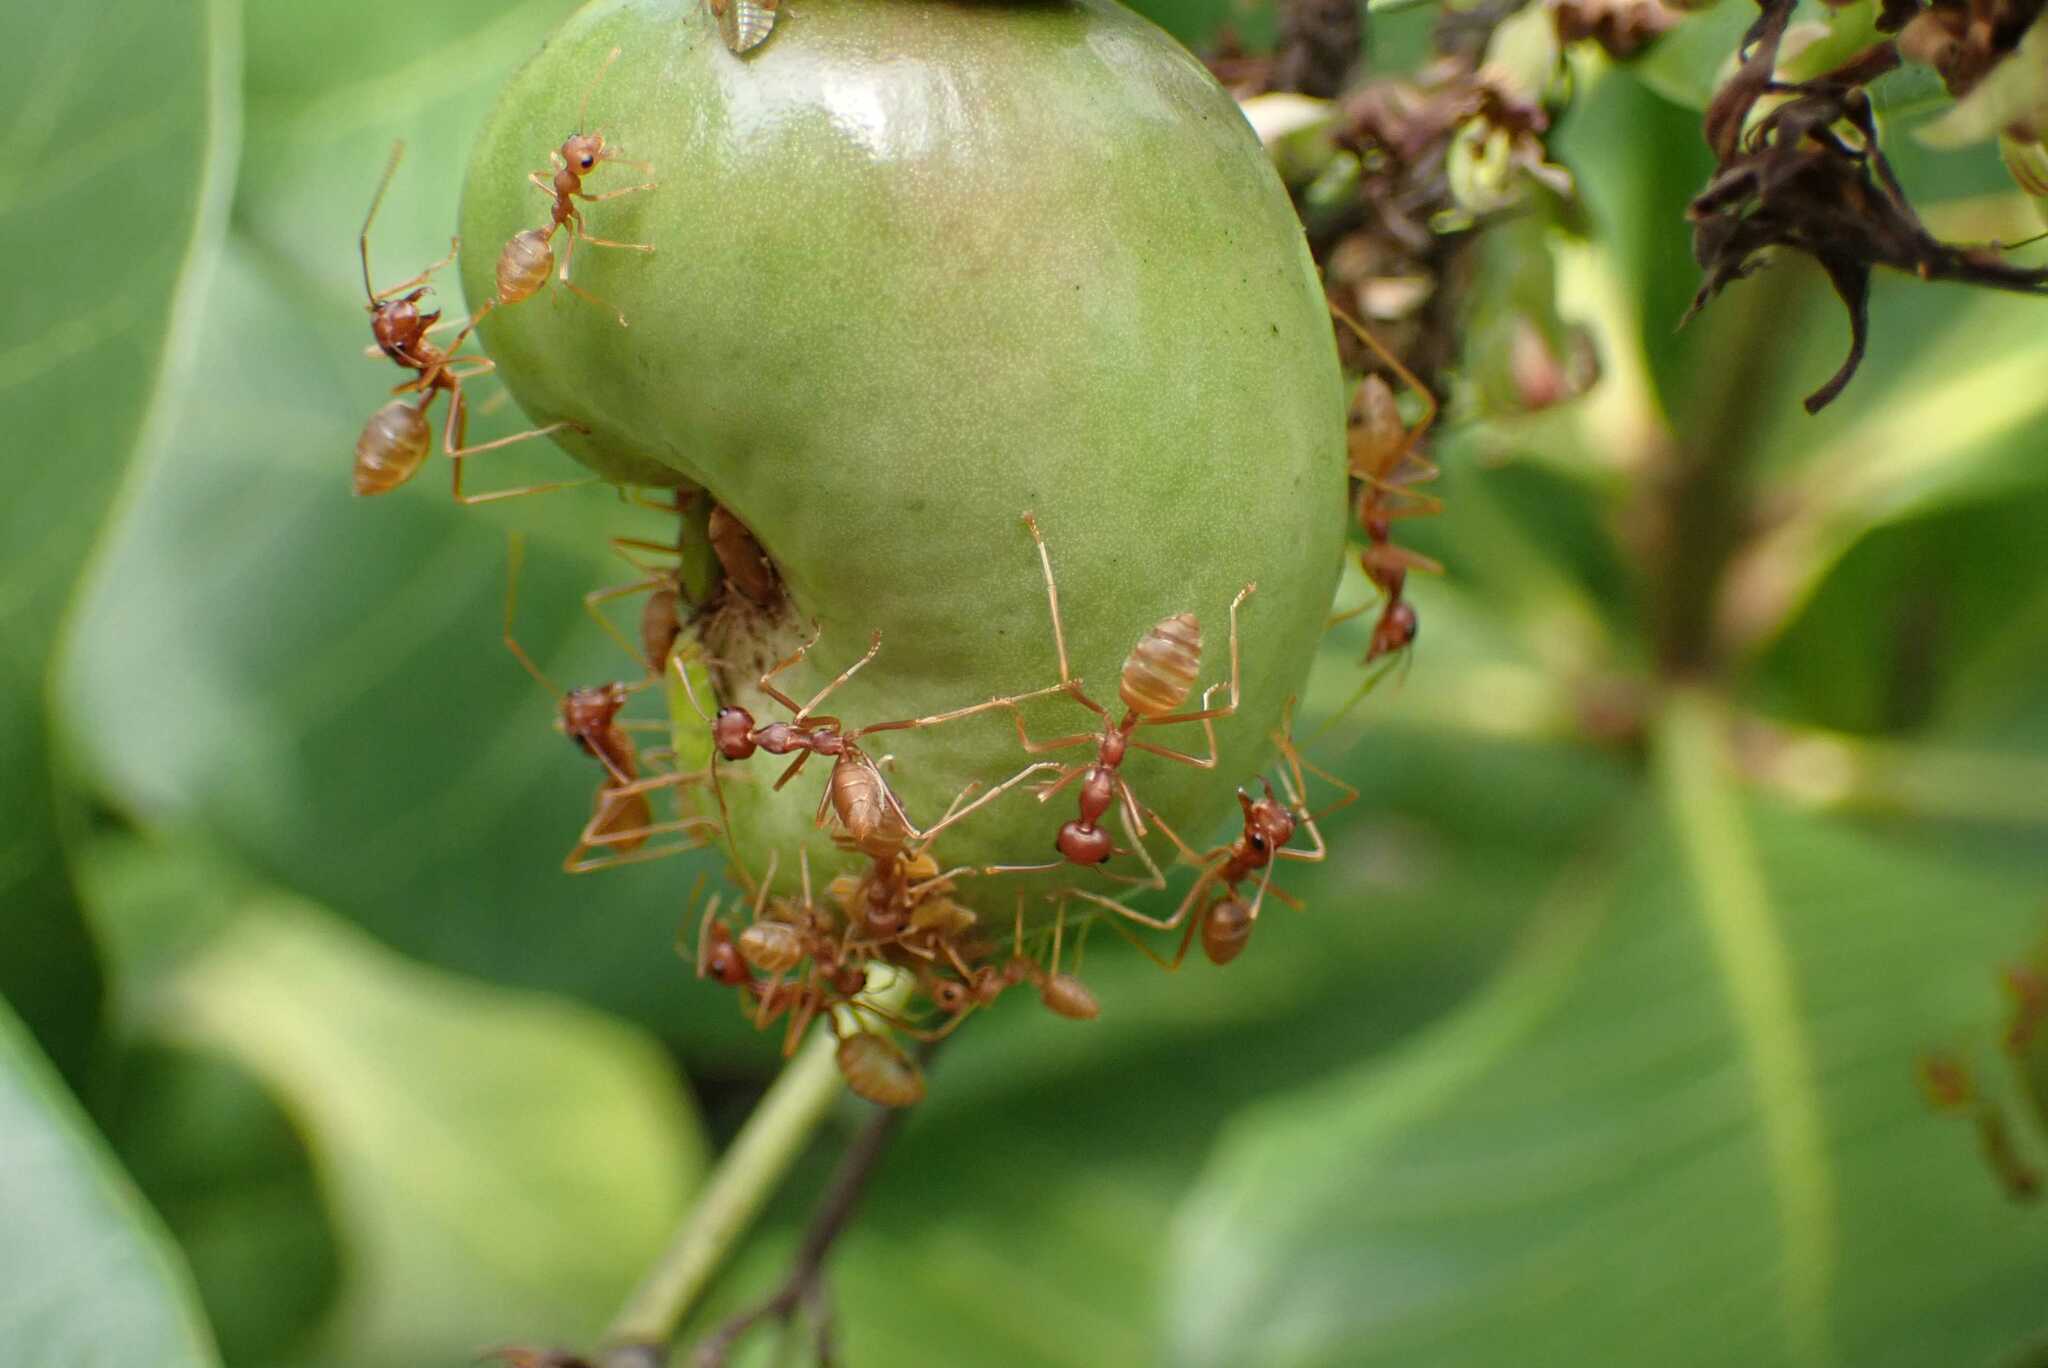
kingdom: Animalia
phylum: Arthropoda
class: Insecta
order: Hymenoptera
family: Formicidae
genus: Oecophylla
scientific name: Oecophylla longinoda
